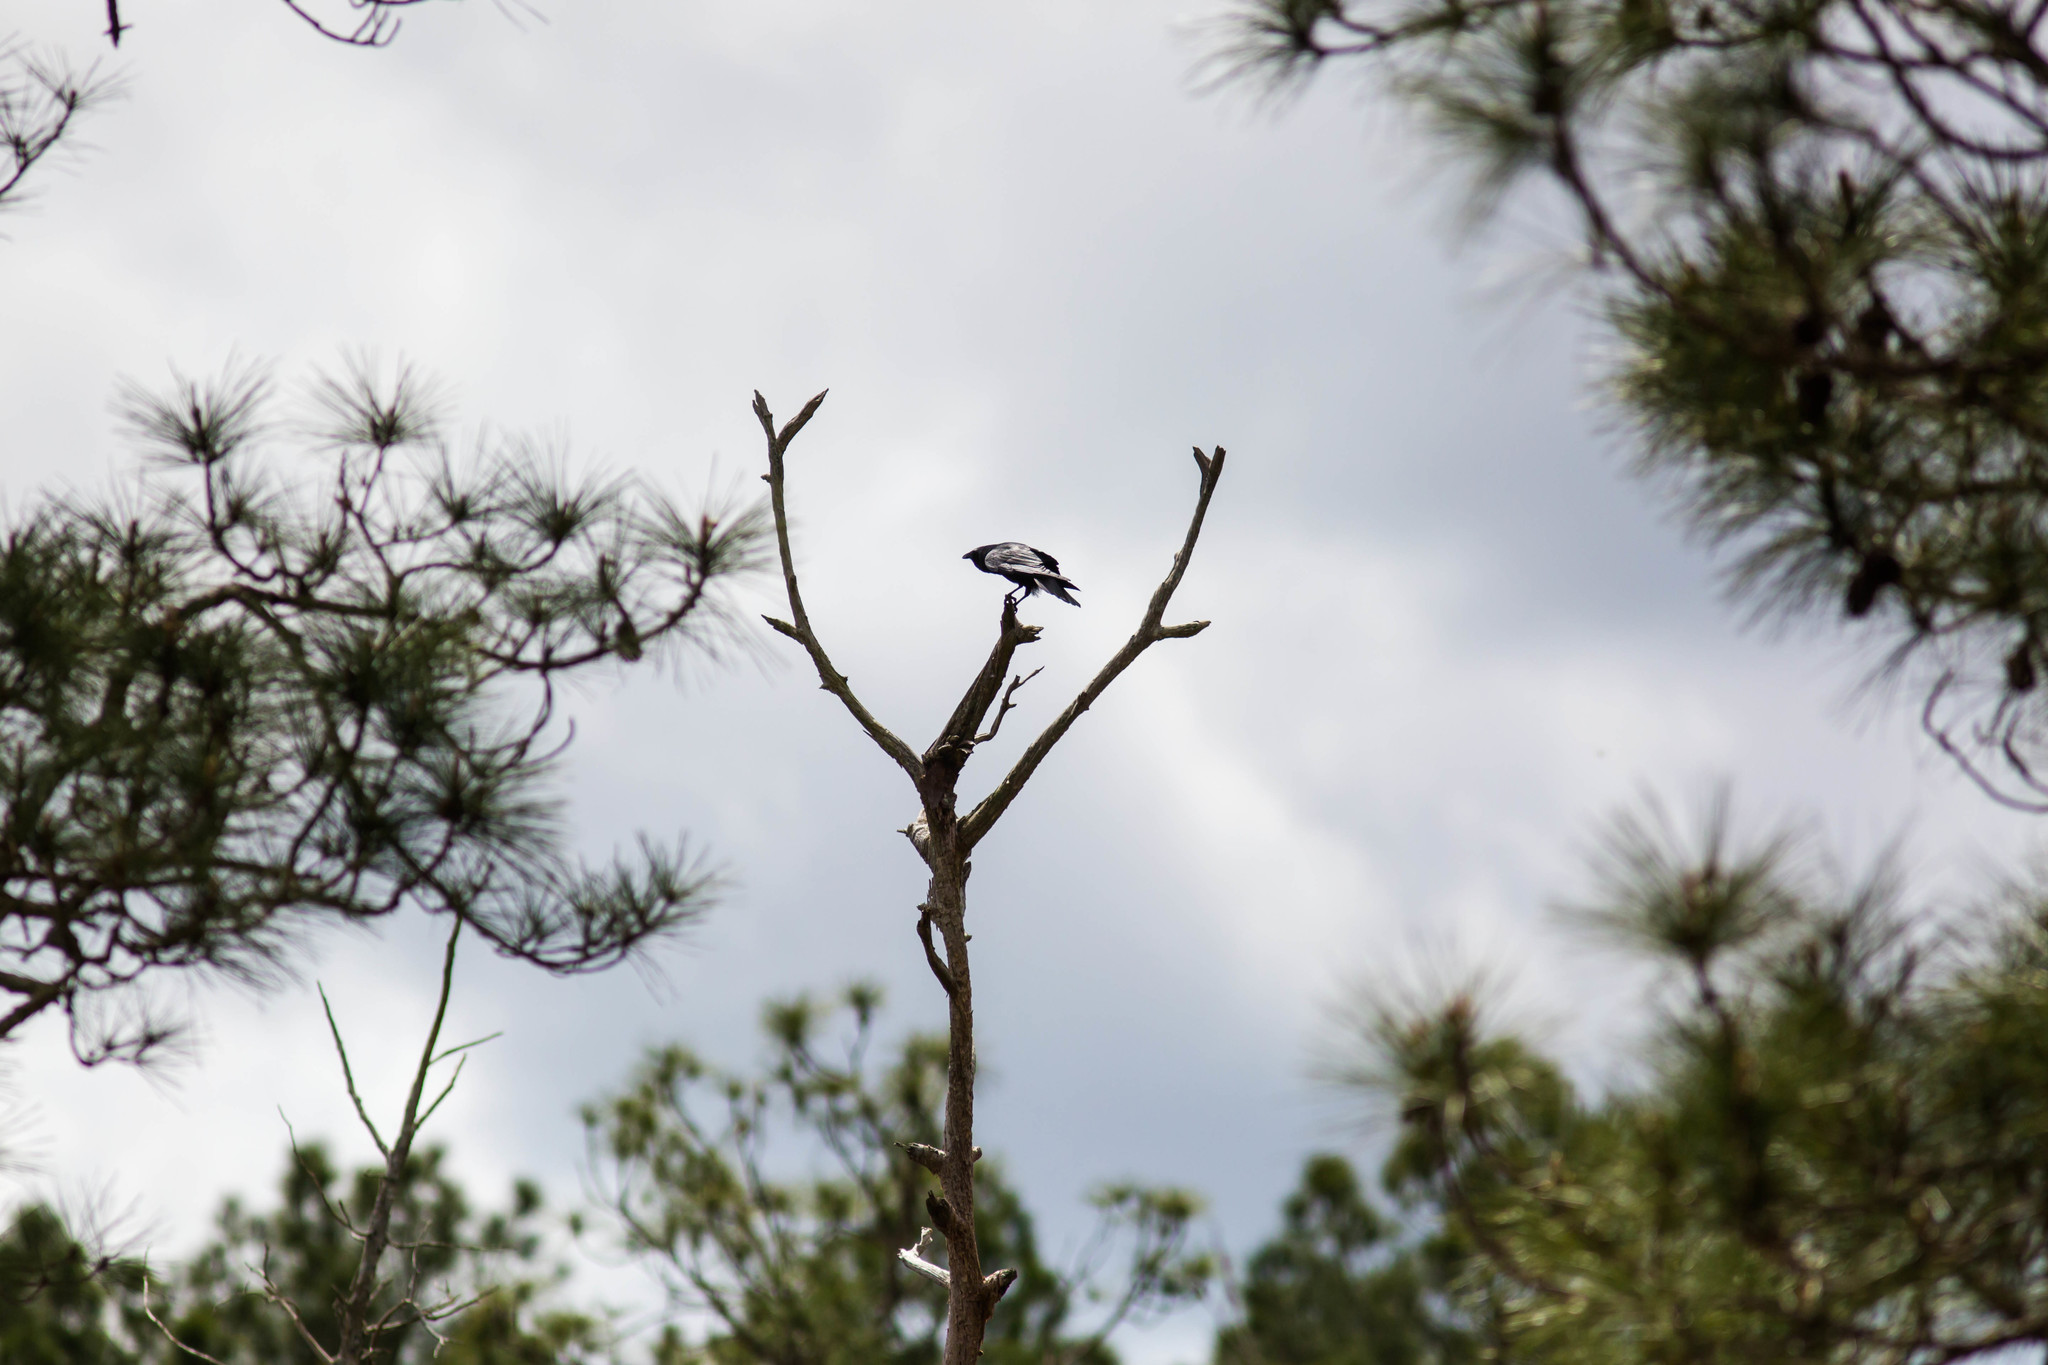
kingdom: Animalia
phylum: Chordata
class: Aves
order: Passeriformes
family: Corvidae
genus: Corvus
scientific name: Corvus ossifragus
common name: Fish crow
